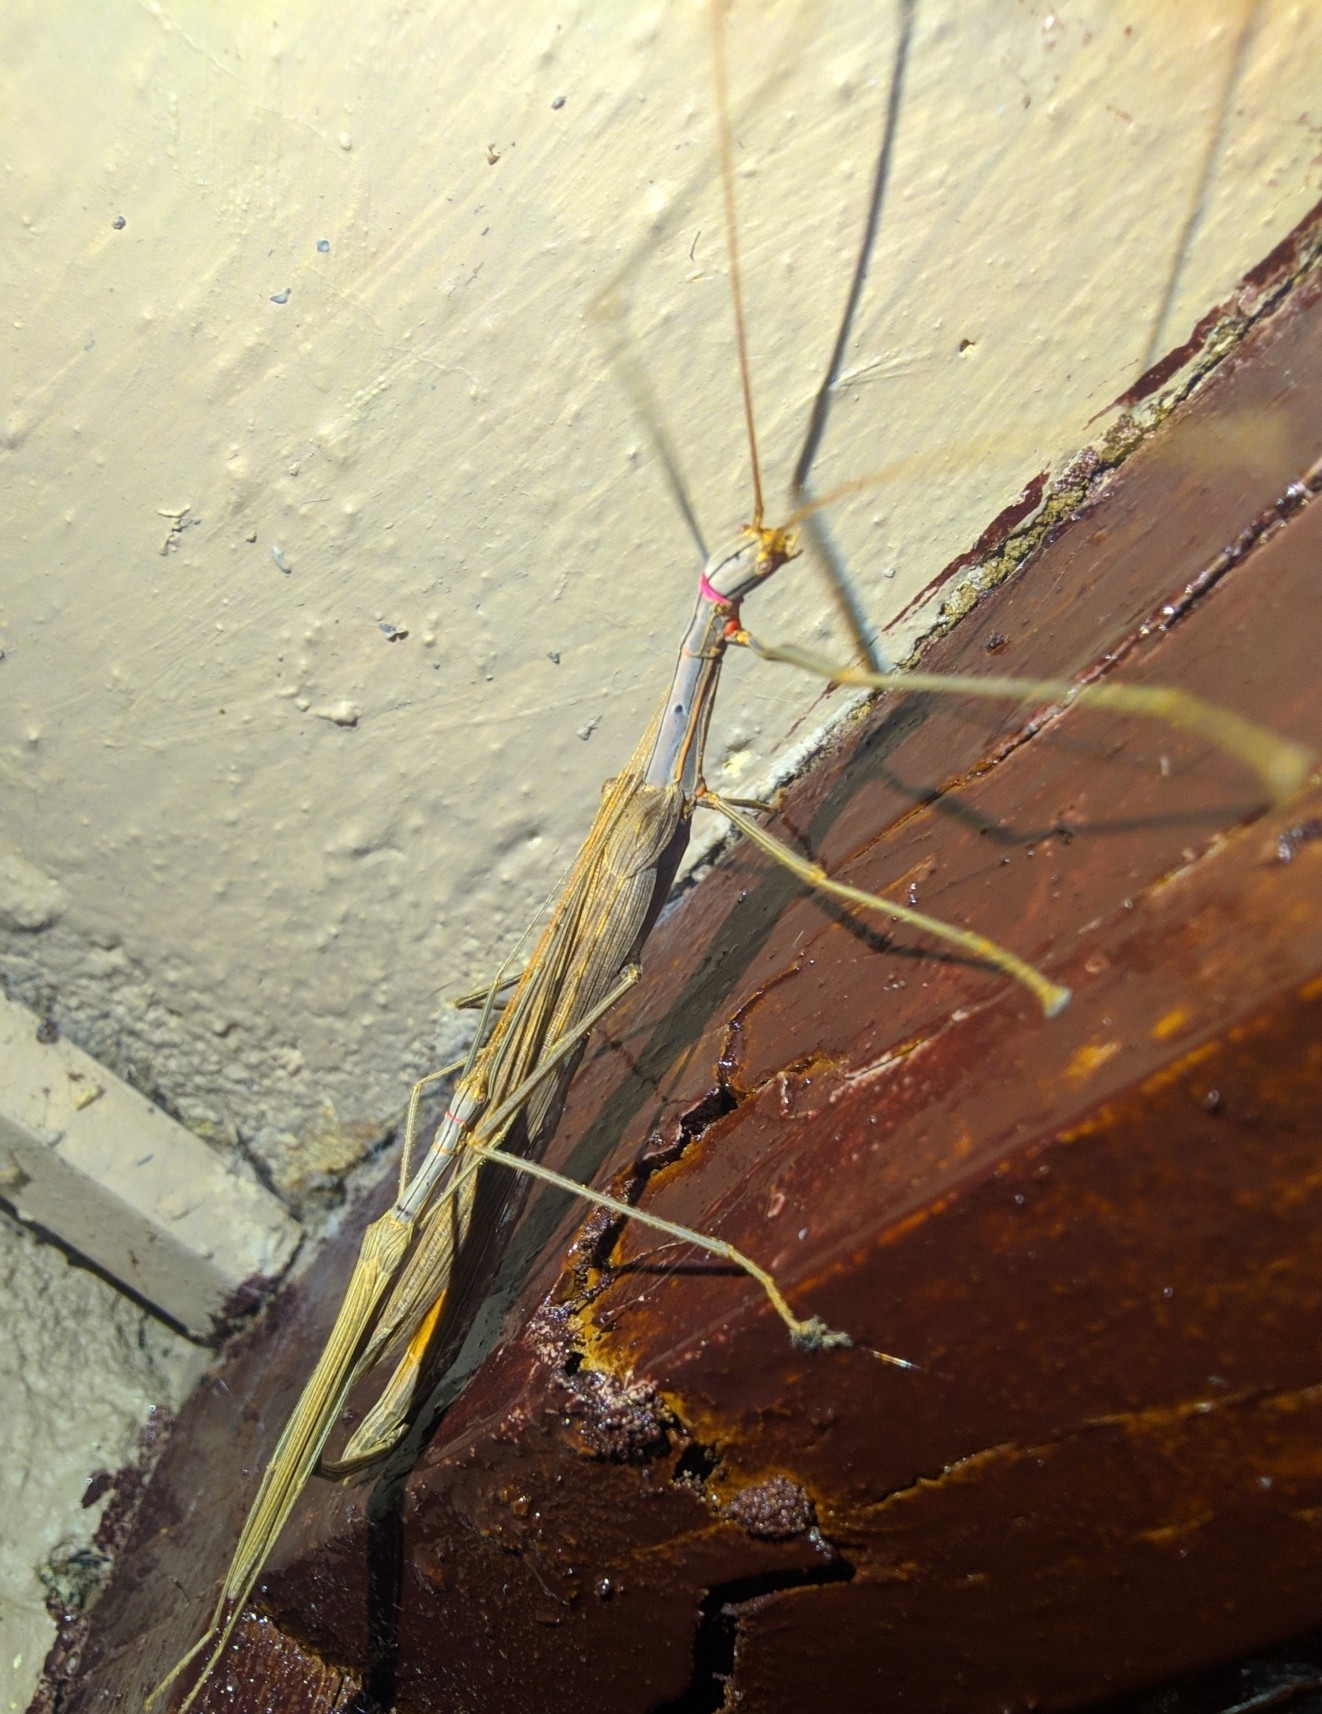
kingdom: Animalia
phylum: Arthropoda
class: Insecta
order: Phasmida
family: Lonchodidae
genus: Trachythorax
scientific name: Trachythorax sparaxes
